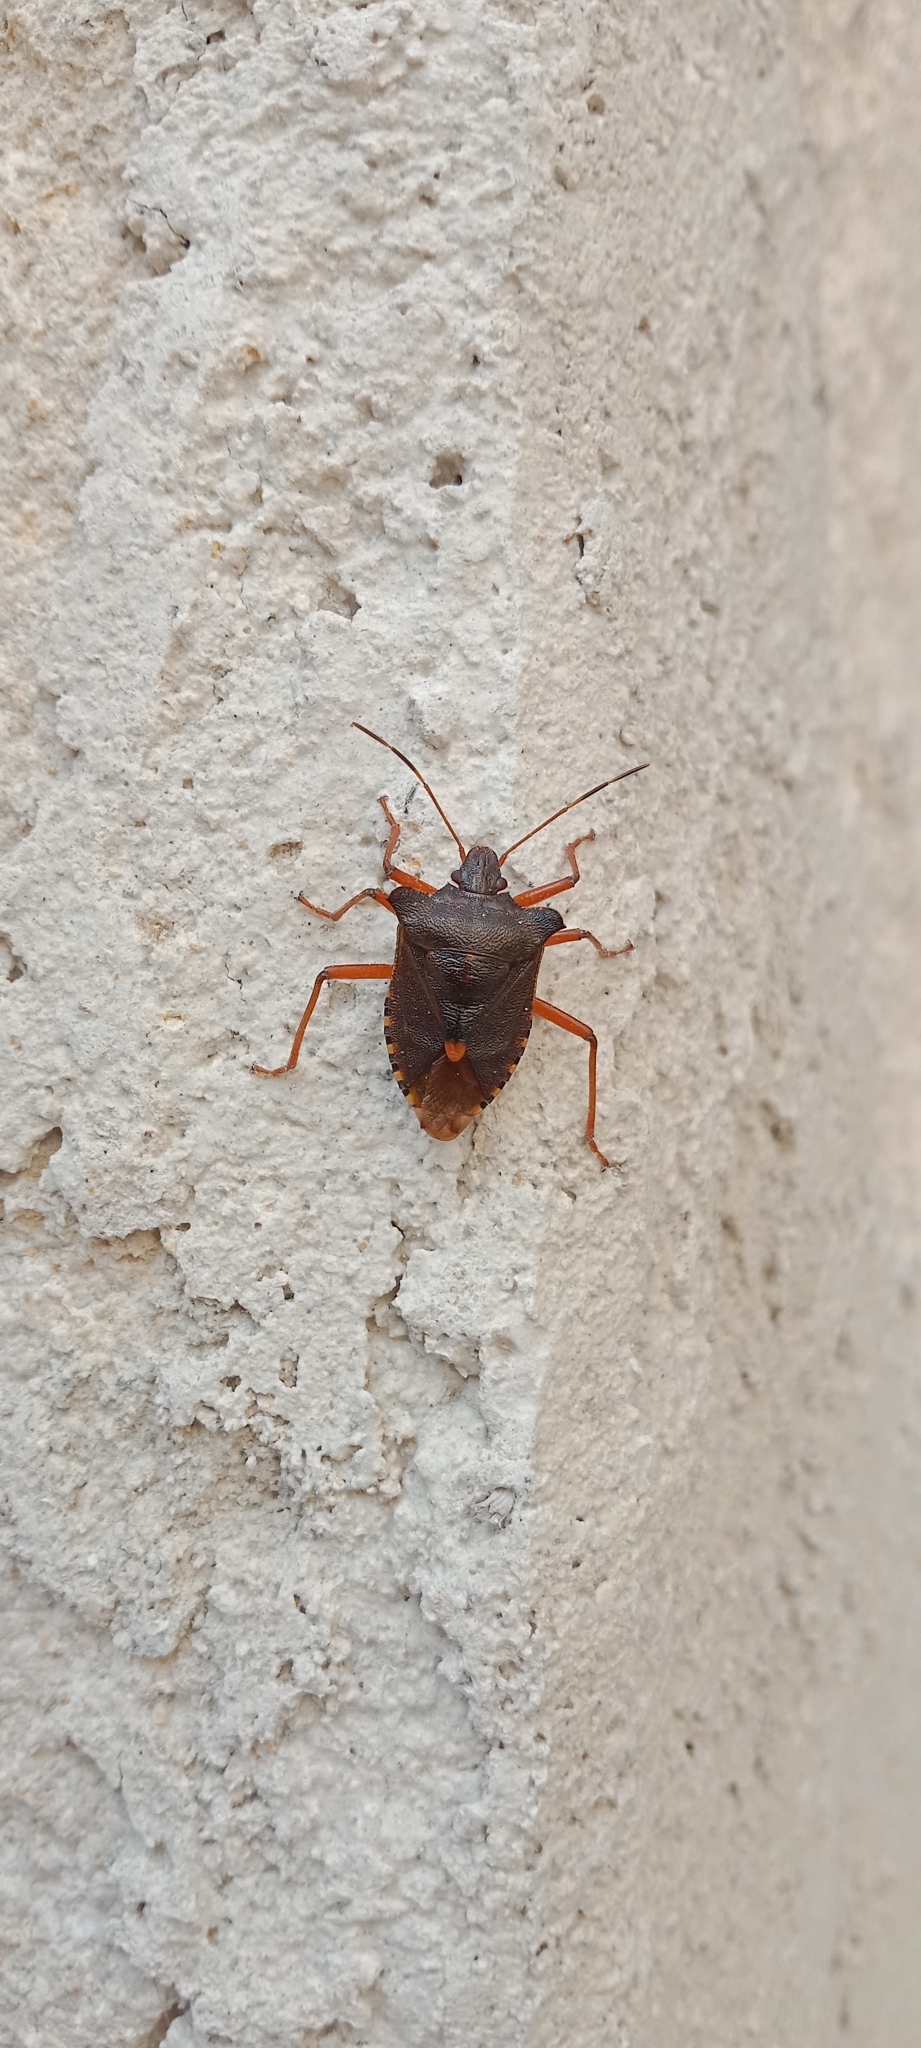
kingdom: Animalia
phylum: Arthropoda
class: Insecta
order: Hemiptera
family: Pentatomidae
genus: Pentatoma
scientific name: Pentatoma rufipes
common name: Forest bug
